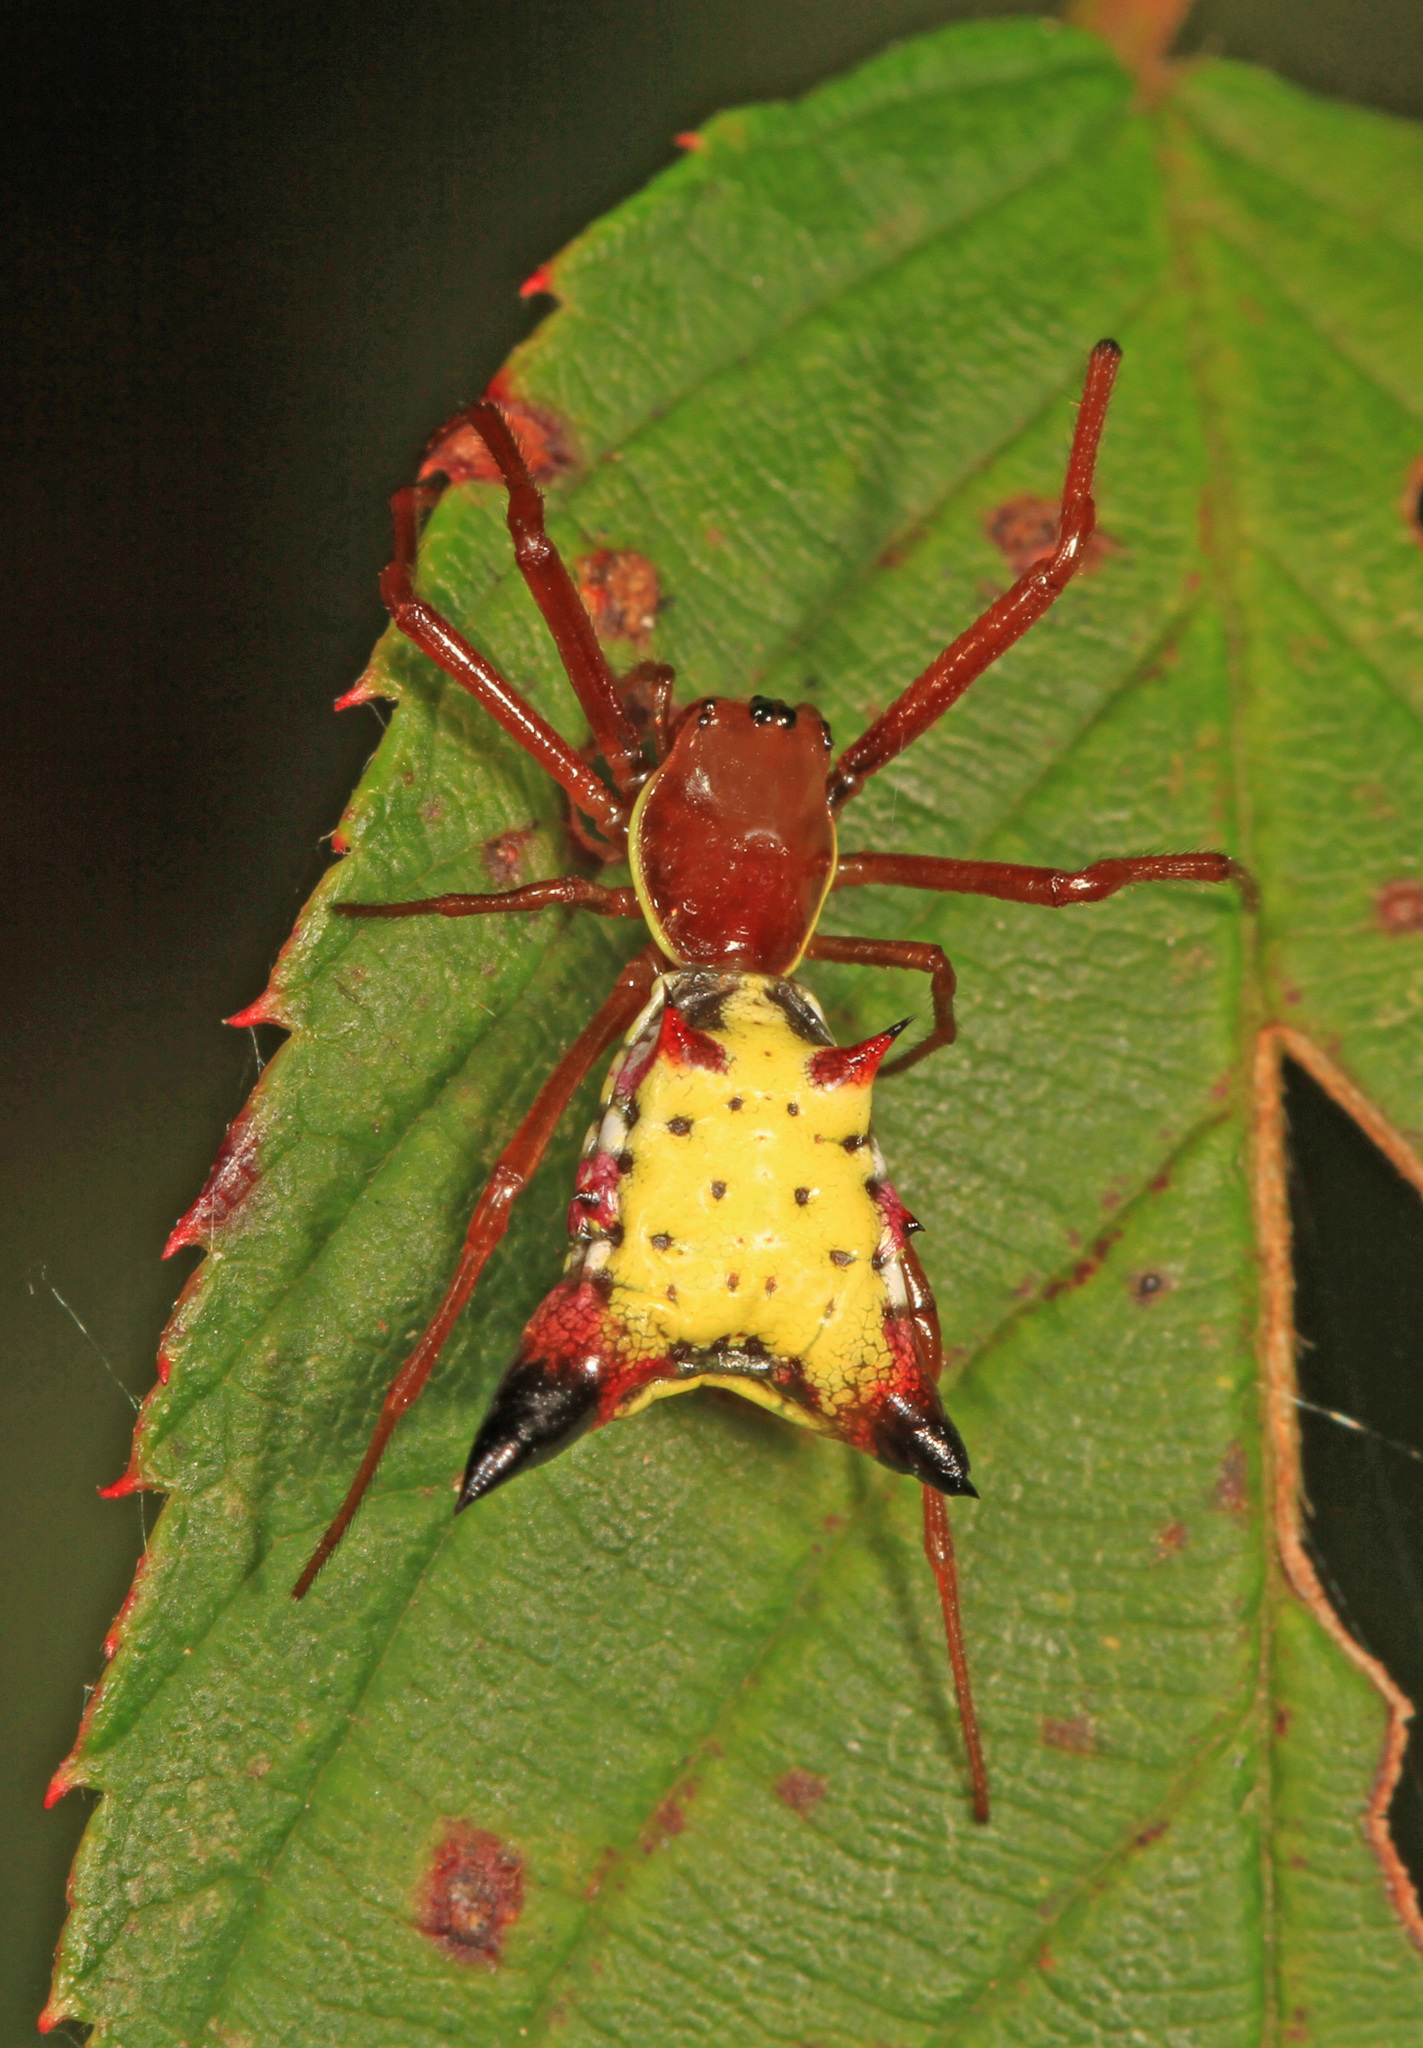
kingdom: Animalia
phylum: Arthropoda
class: Arachnida
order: Araneae
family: Araneidae
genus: Micrathena
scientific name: Micrathena sagittata
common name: Orb weavers
